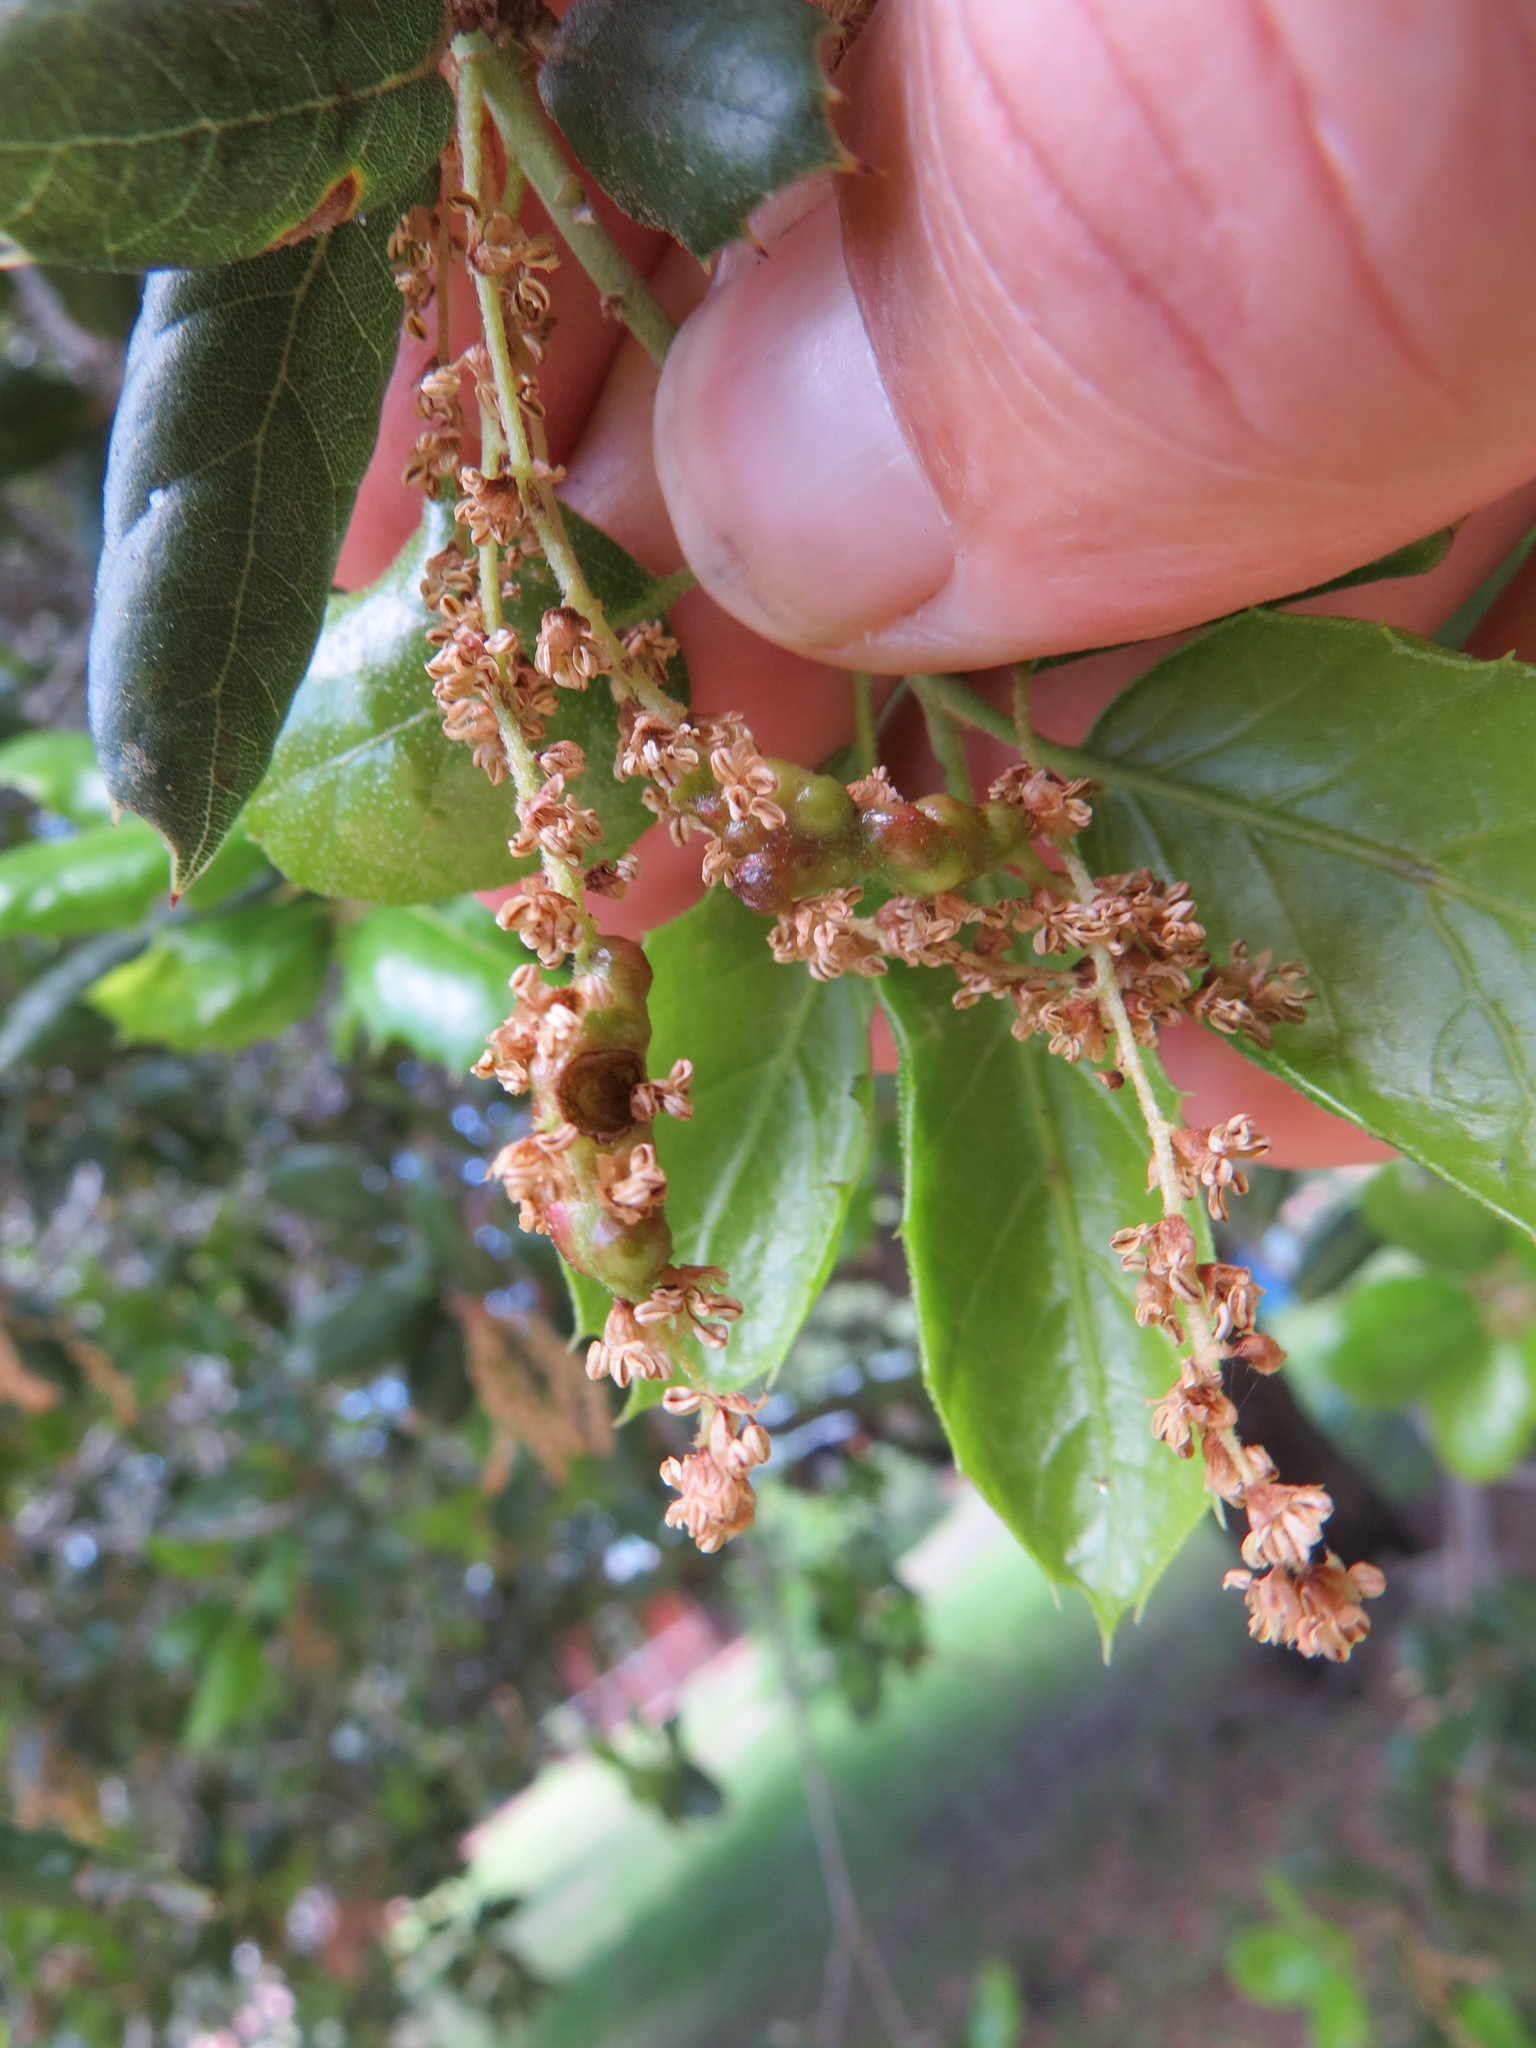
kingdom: Animalia
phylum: Arthropoda
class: Insecta
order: Hymenoptera
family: Cynipidae
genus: Callirhytis
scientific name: Callirhytis
